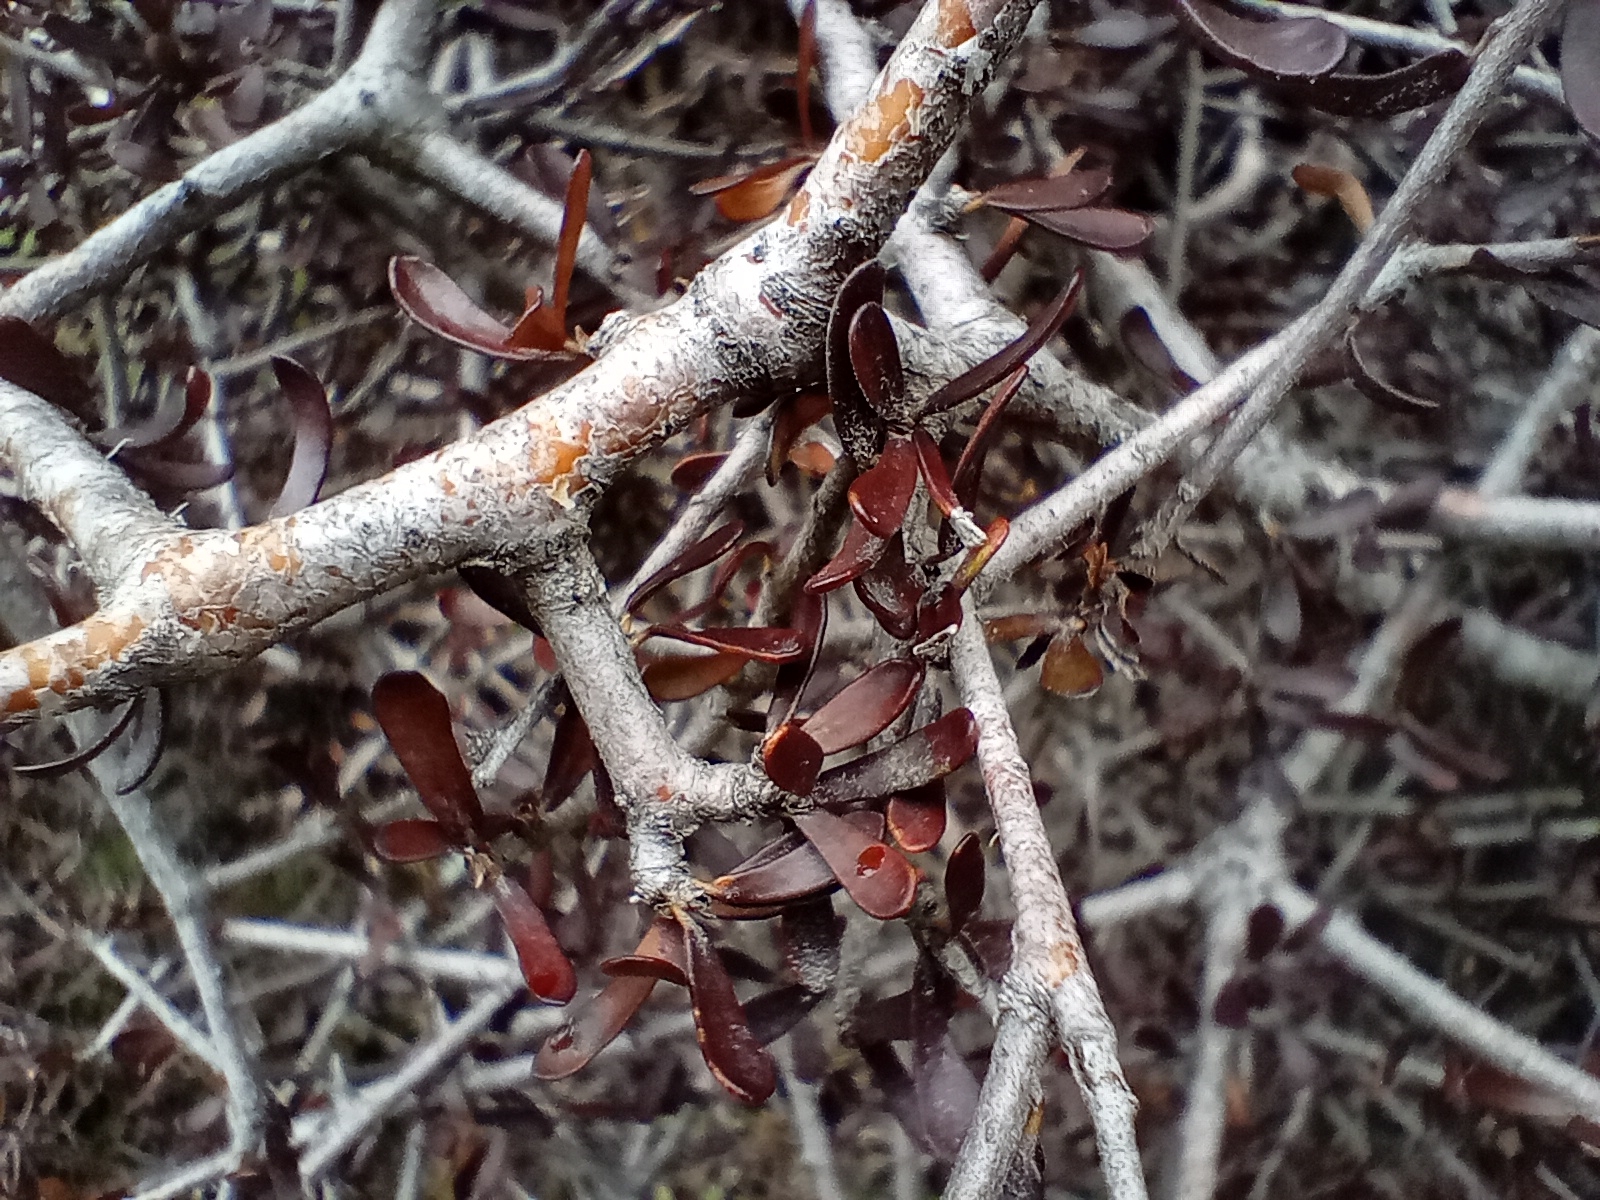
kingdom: Plantae
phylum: Tracheophyta
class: Magnoliopsida
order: Apiales
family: Pittosporaceae
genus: Pittosporum
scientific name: Pittosporum anomalum
